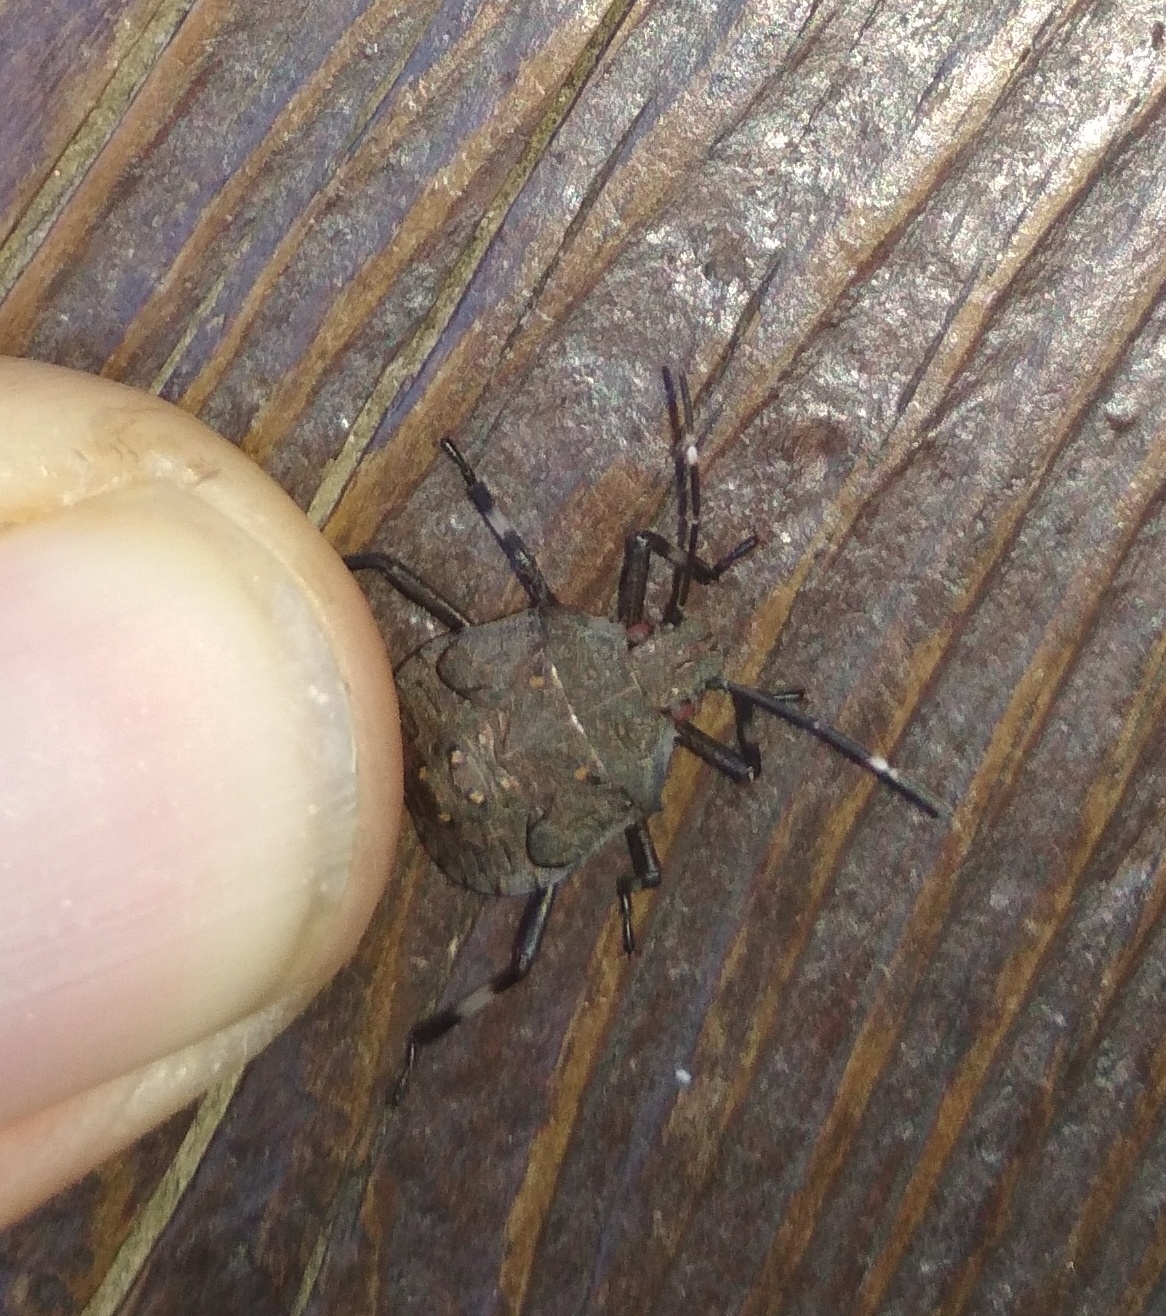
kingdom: Animalia
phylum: Arthropoda
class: Insecta
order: Hemiptera
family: Pentatomidae
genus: Halyomorpha
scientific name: Halyomorpha halys
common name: Brown marmorated stink bug
